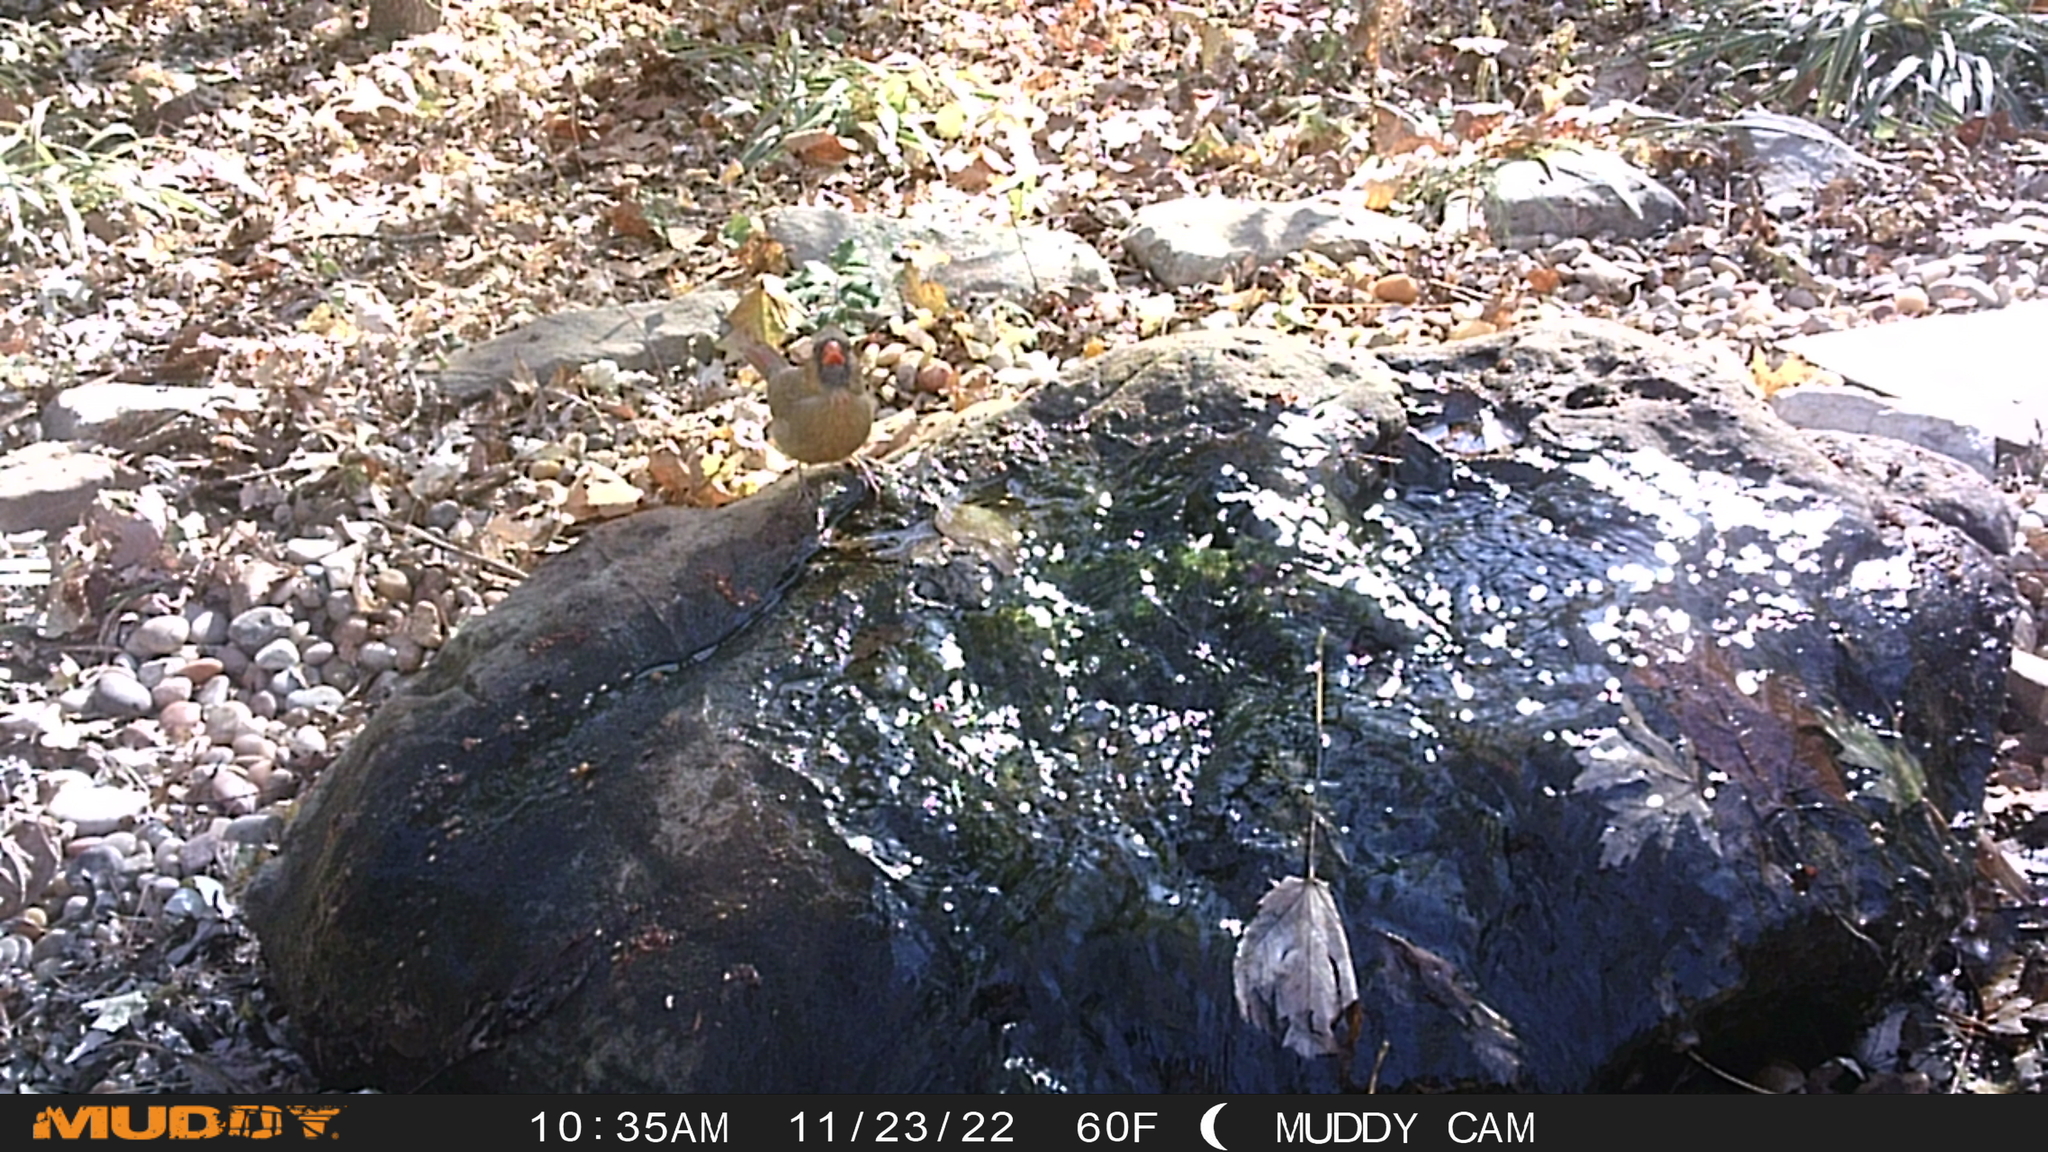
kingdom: Animalia
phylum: Chordata
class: Aves
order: Passeriformes
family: Cardinalidae
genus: Cardinalis
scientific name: Cardinalis cardinalis
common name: Northern cardinal
